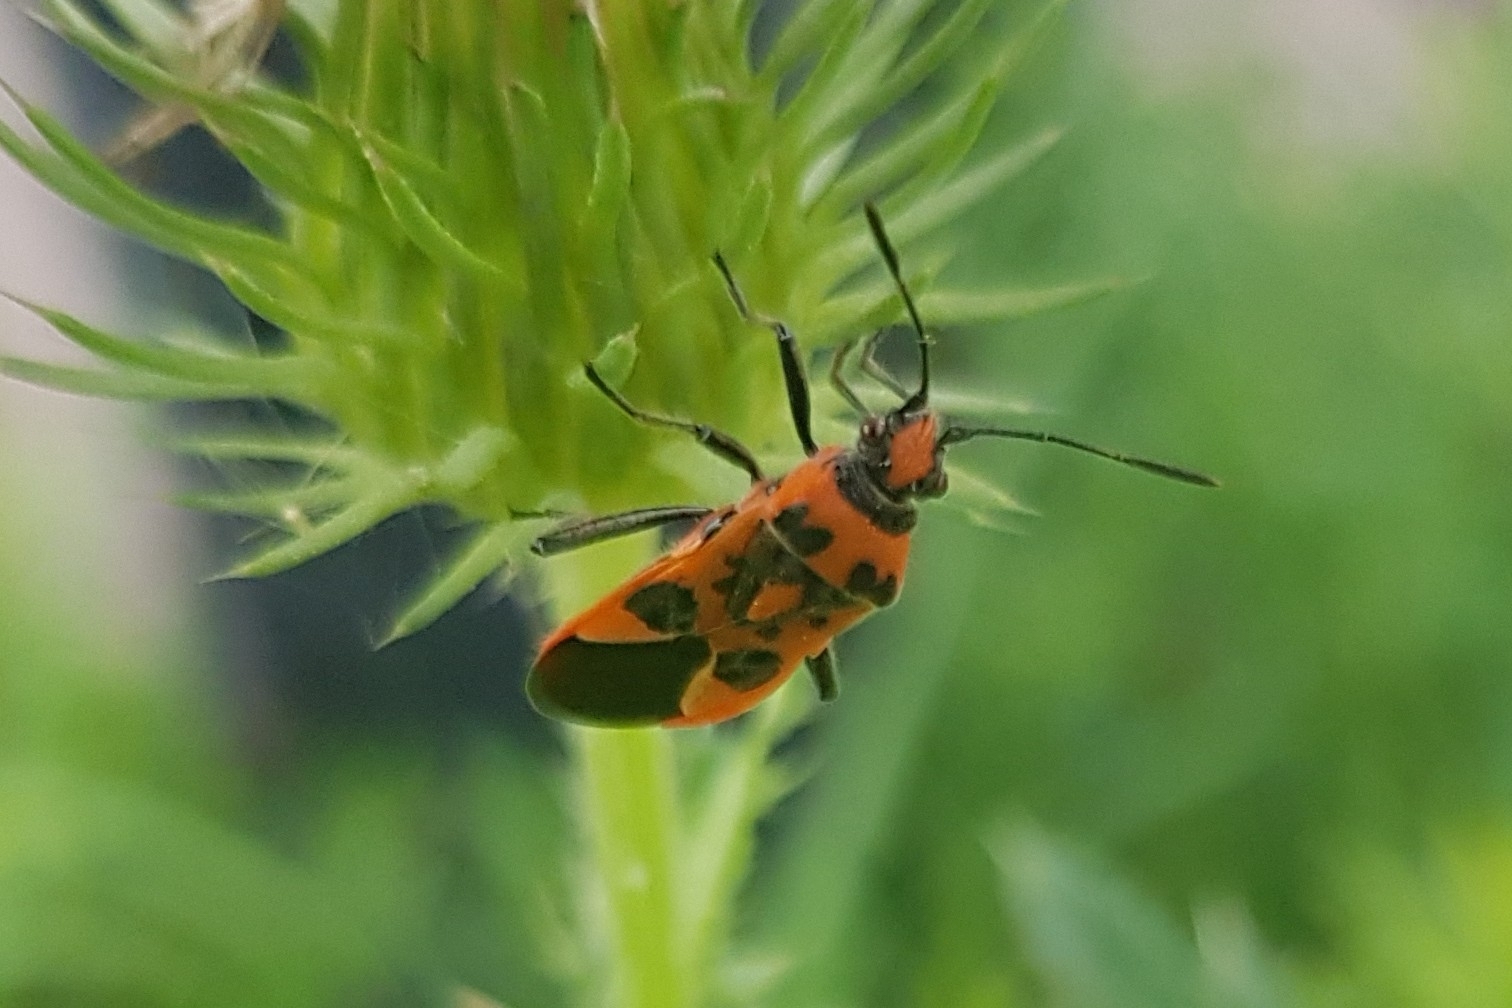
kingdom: Animalia
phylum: Arthropoda
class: Insecta
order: Hemiptera
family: Rhopalidae
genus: Corizus
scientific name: Corizus hyoscyami
